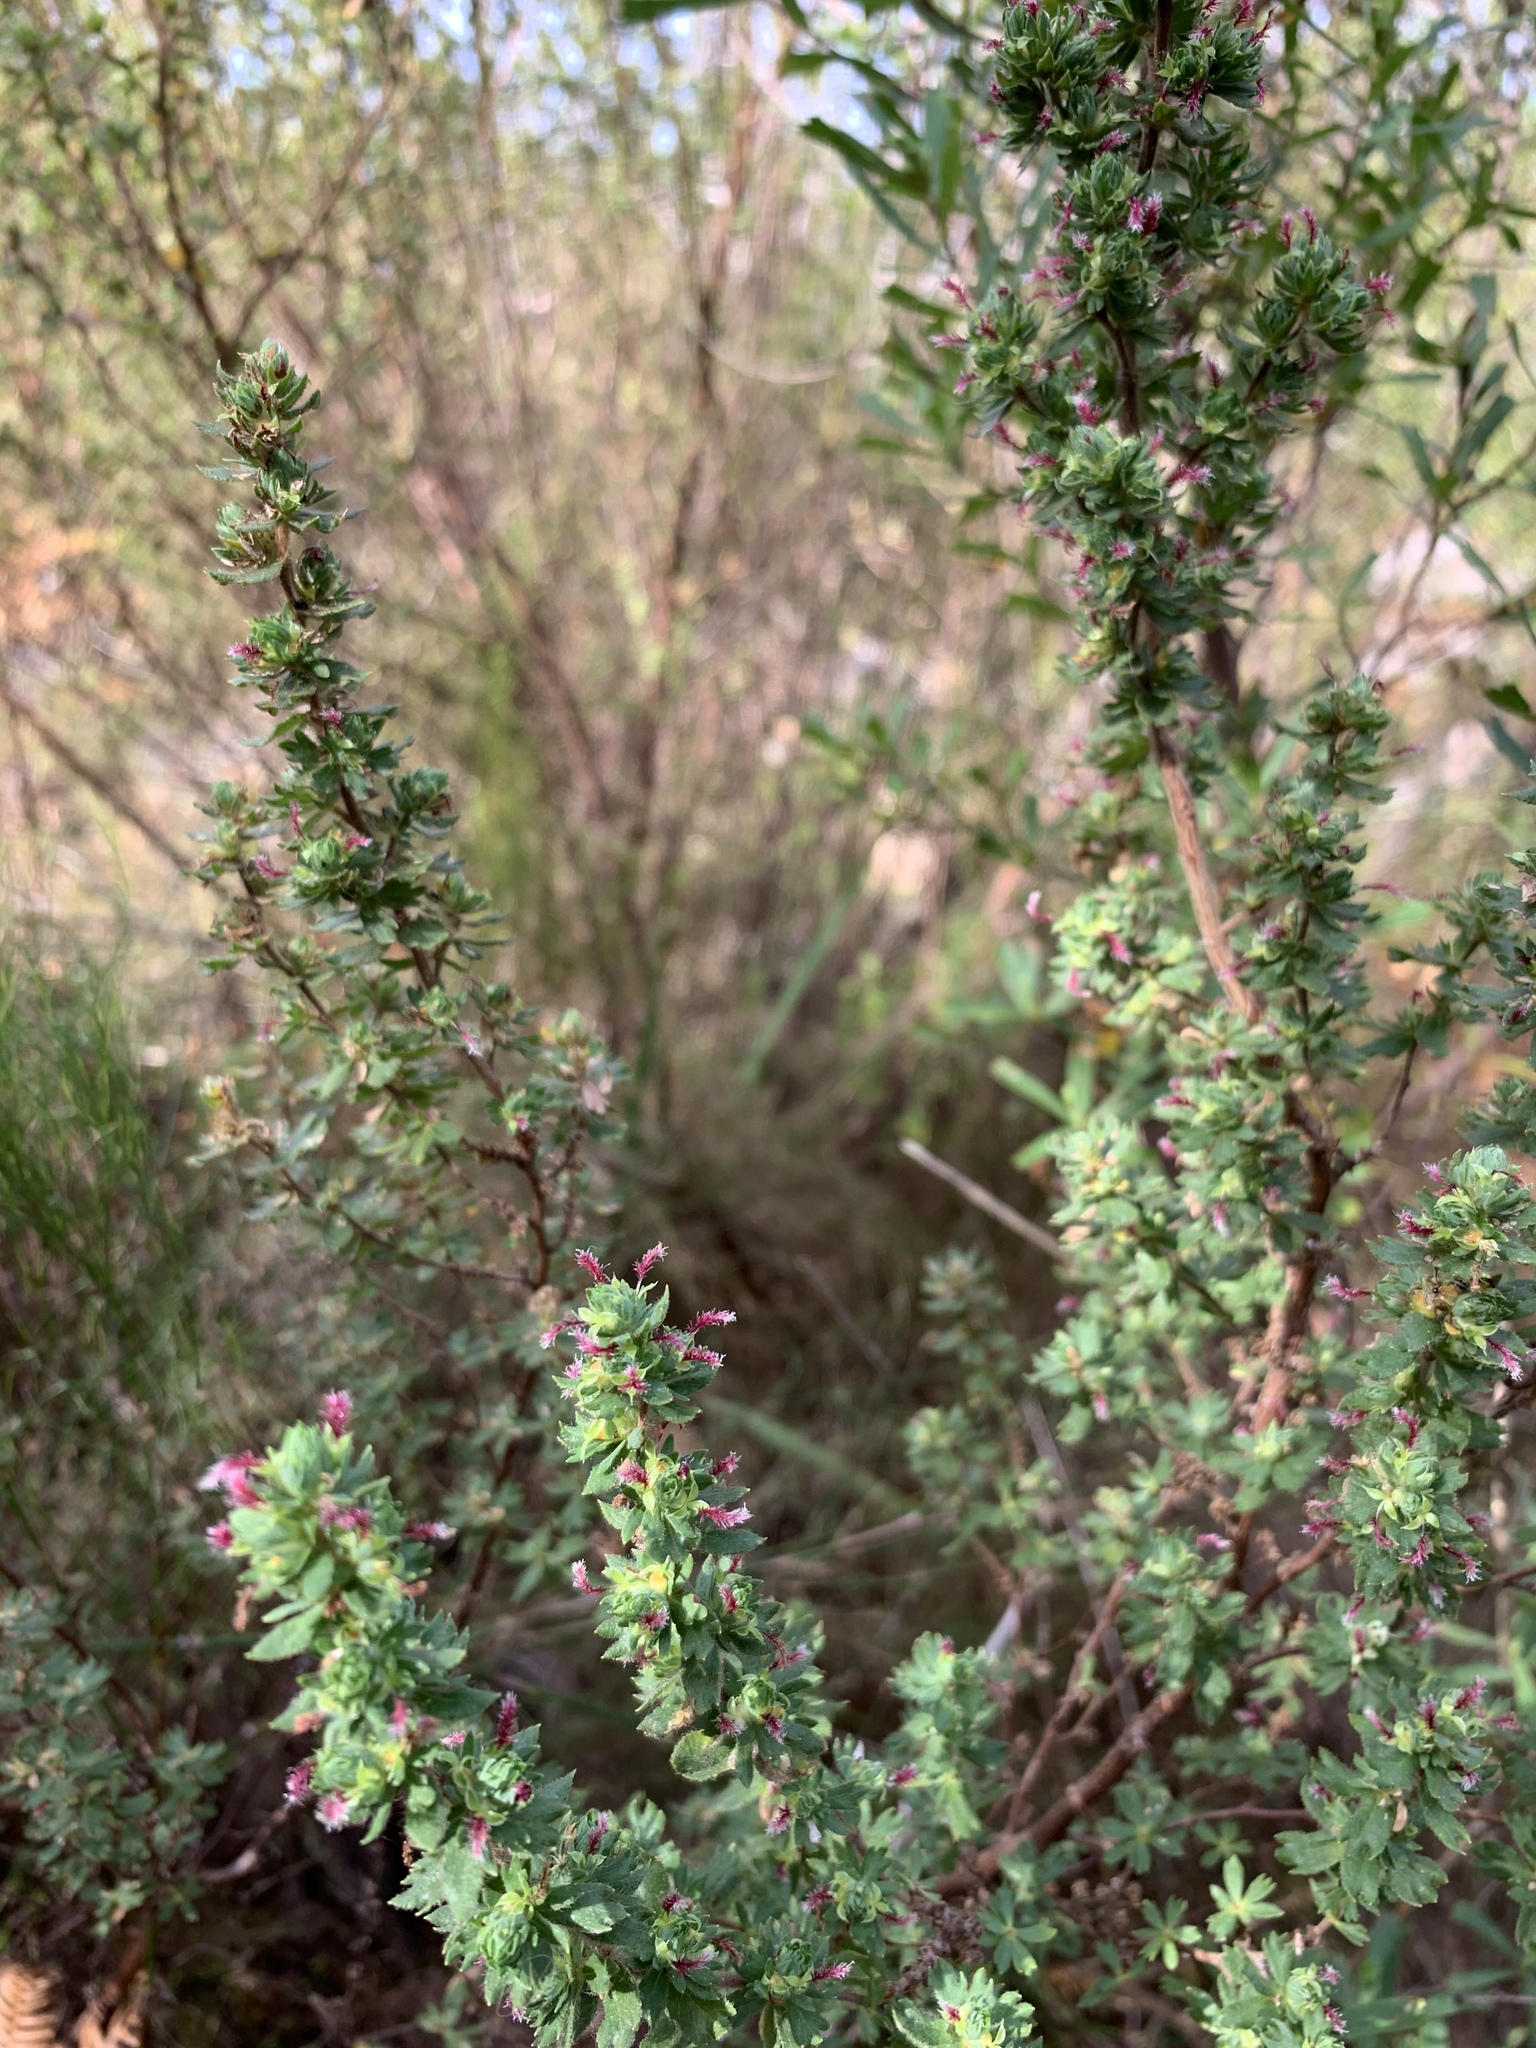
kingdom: Plantae
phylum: Tracheophyta
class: Magnoliopsida
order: Rosales
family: Rosaceae
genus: Cliffortia
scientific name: Cliffortia polygonifolia
